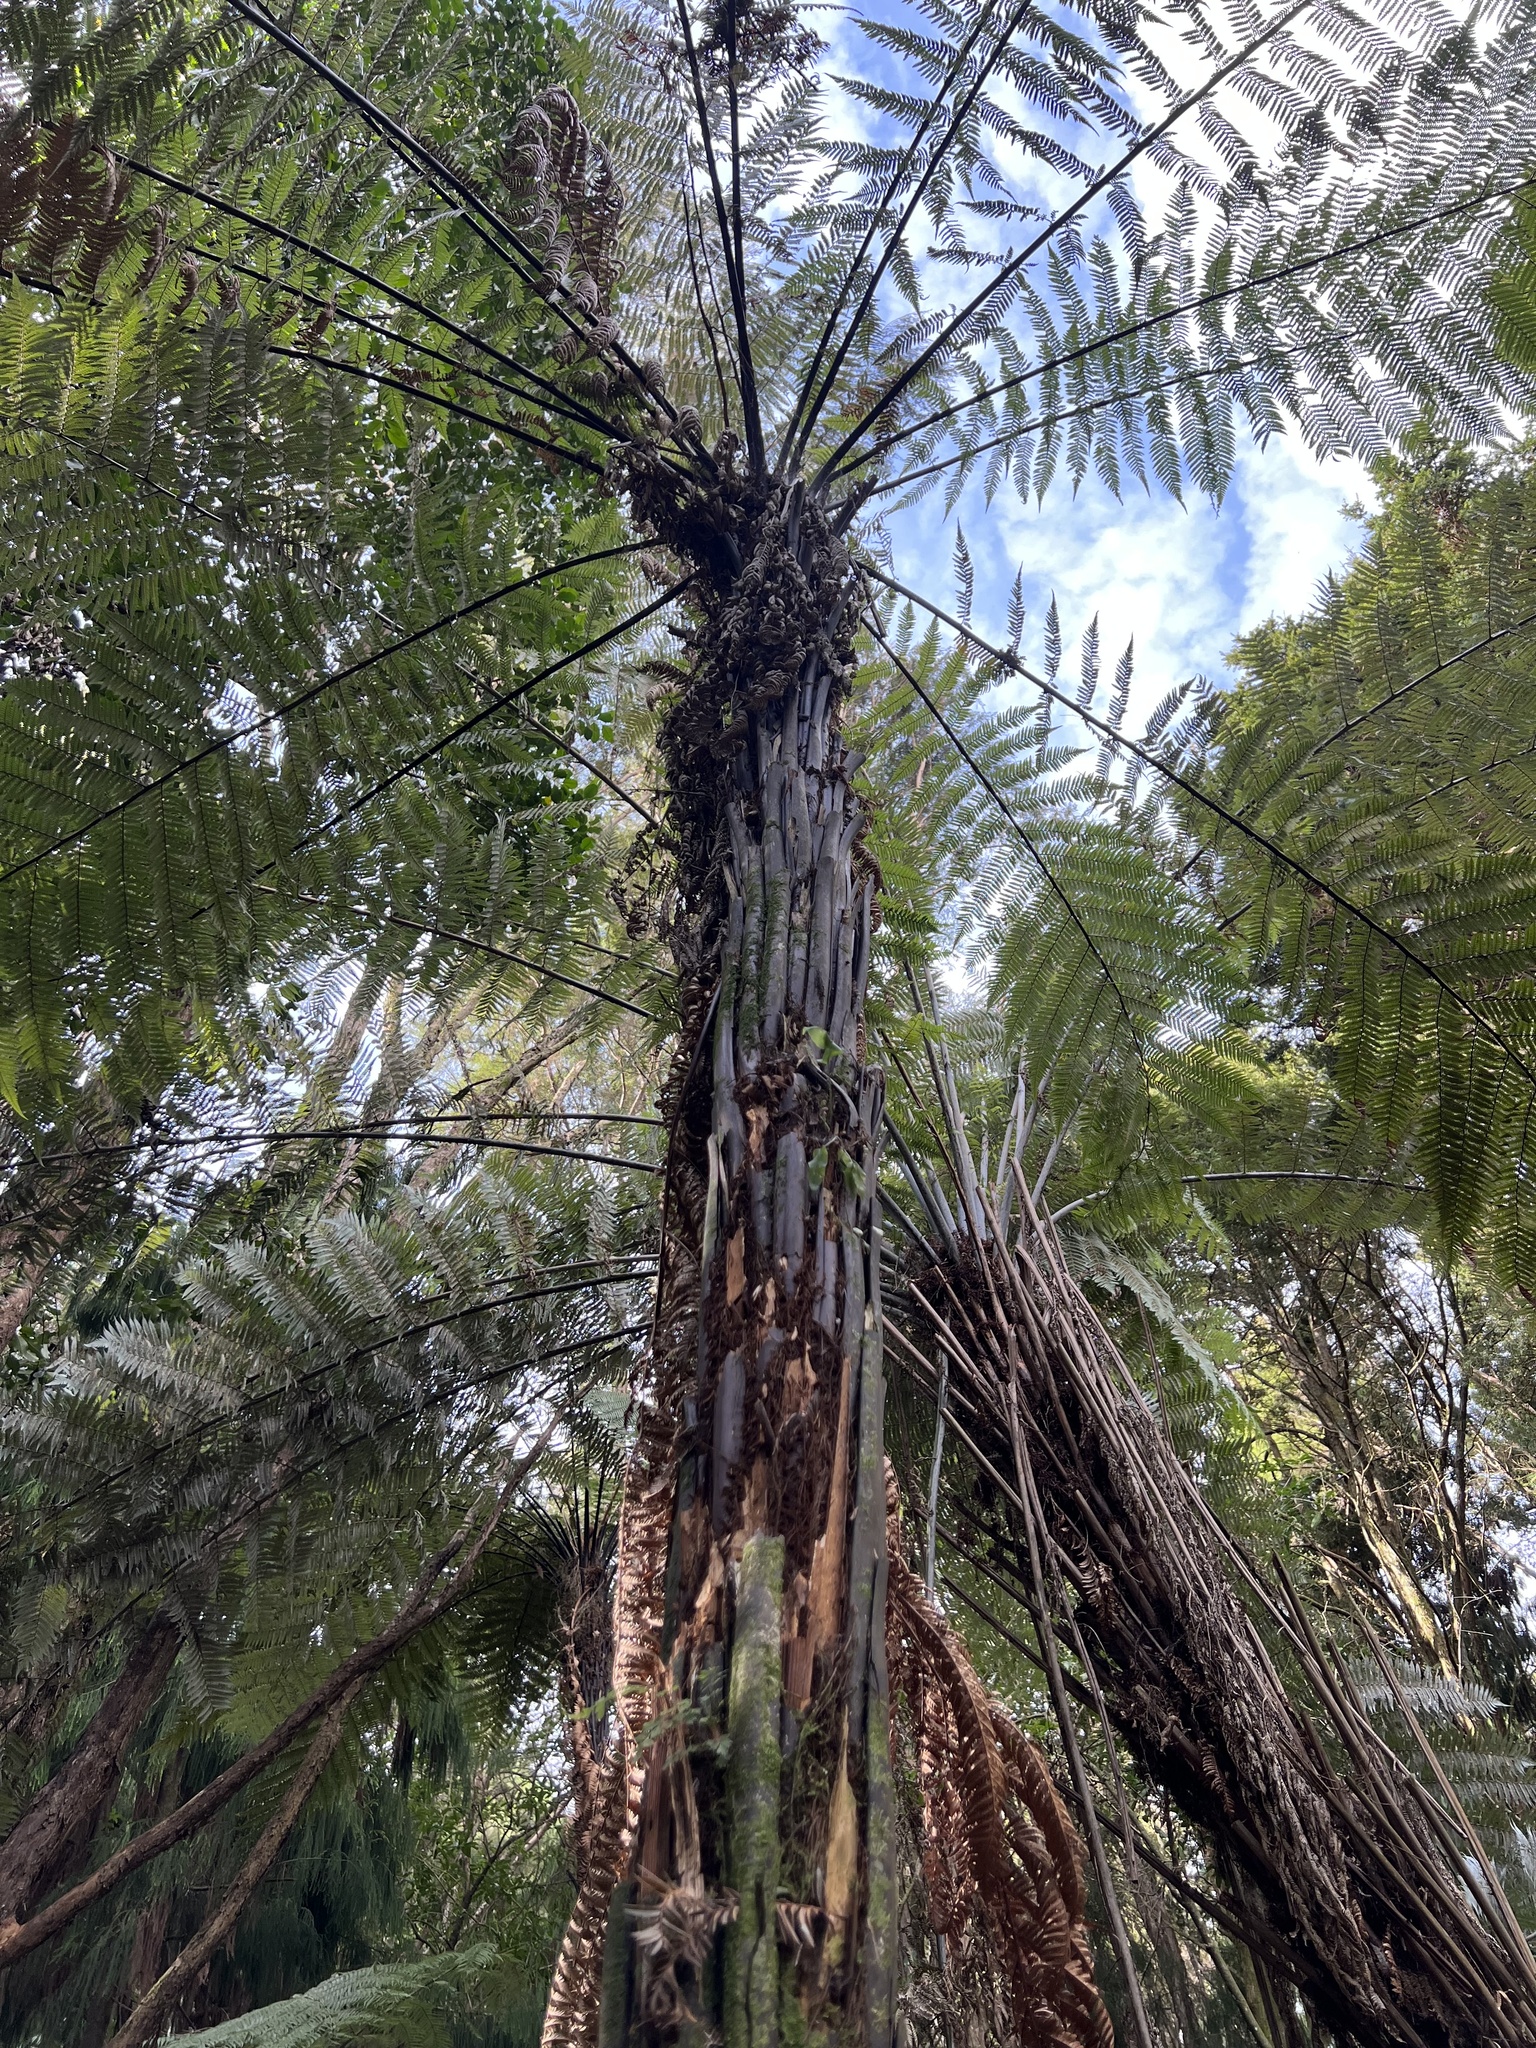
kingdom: Plantae
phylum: Tracheophyta
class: Polypodiopsida
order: Cyatheales
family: Dicksoniaceae
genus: Dicksonia
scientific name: Dicksonia squarrosa
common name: Hard treefern
